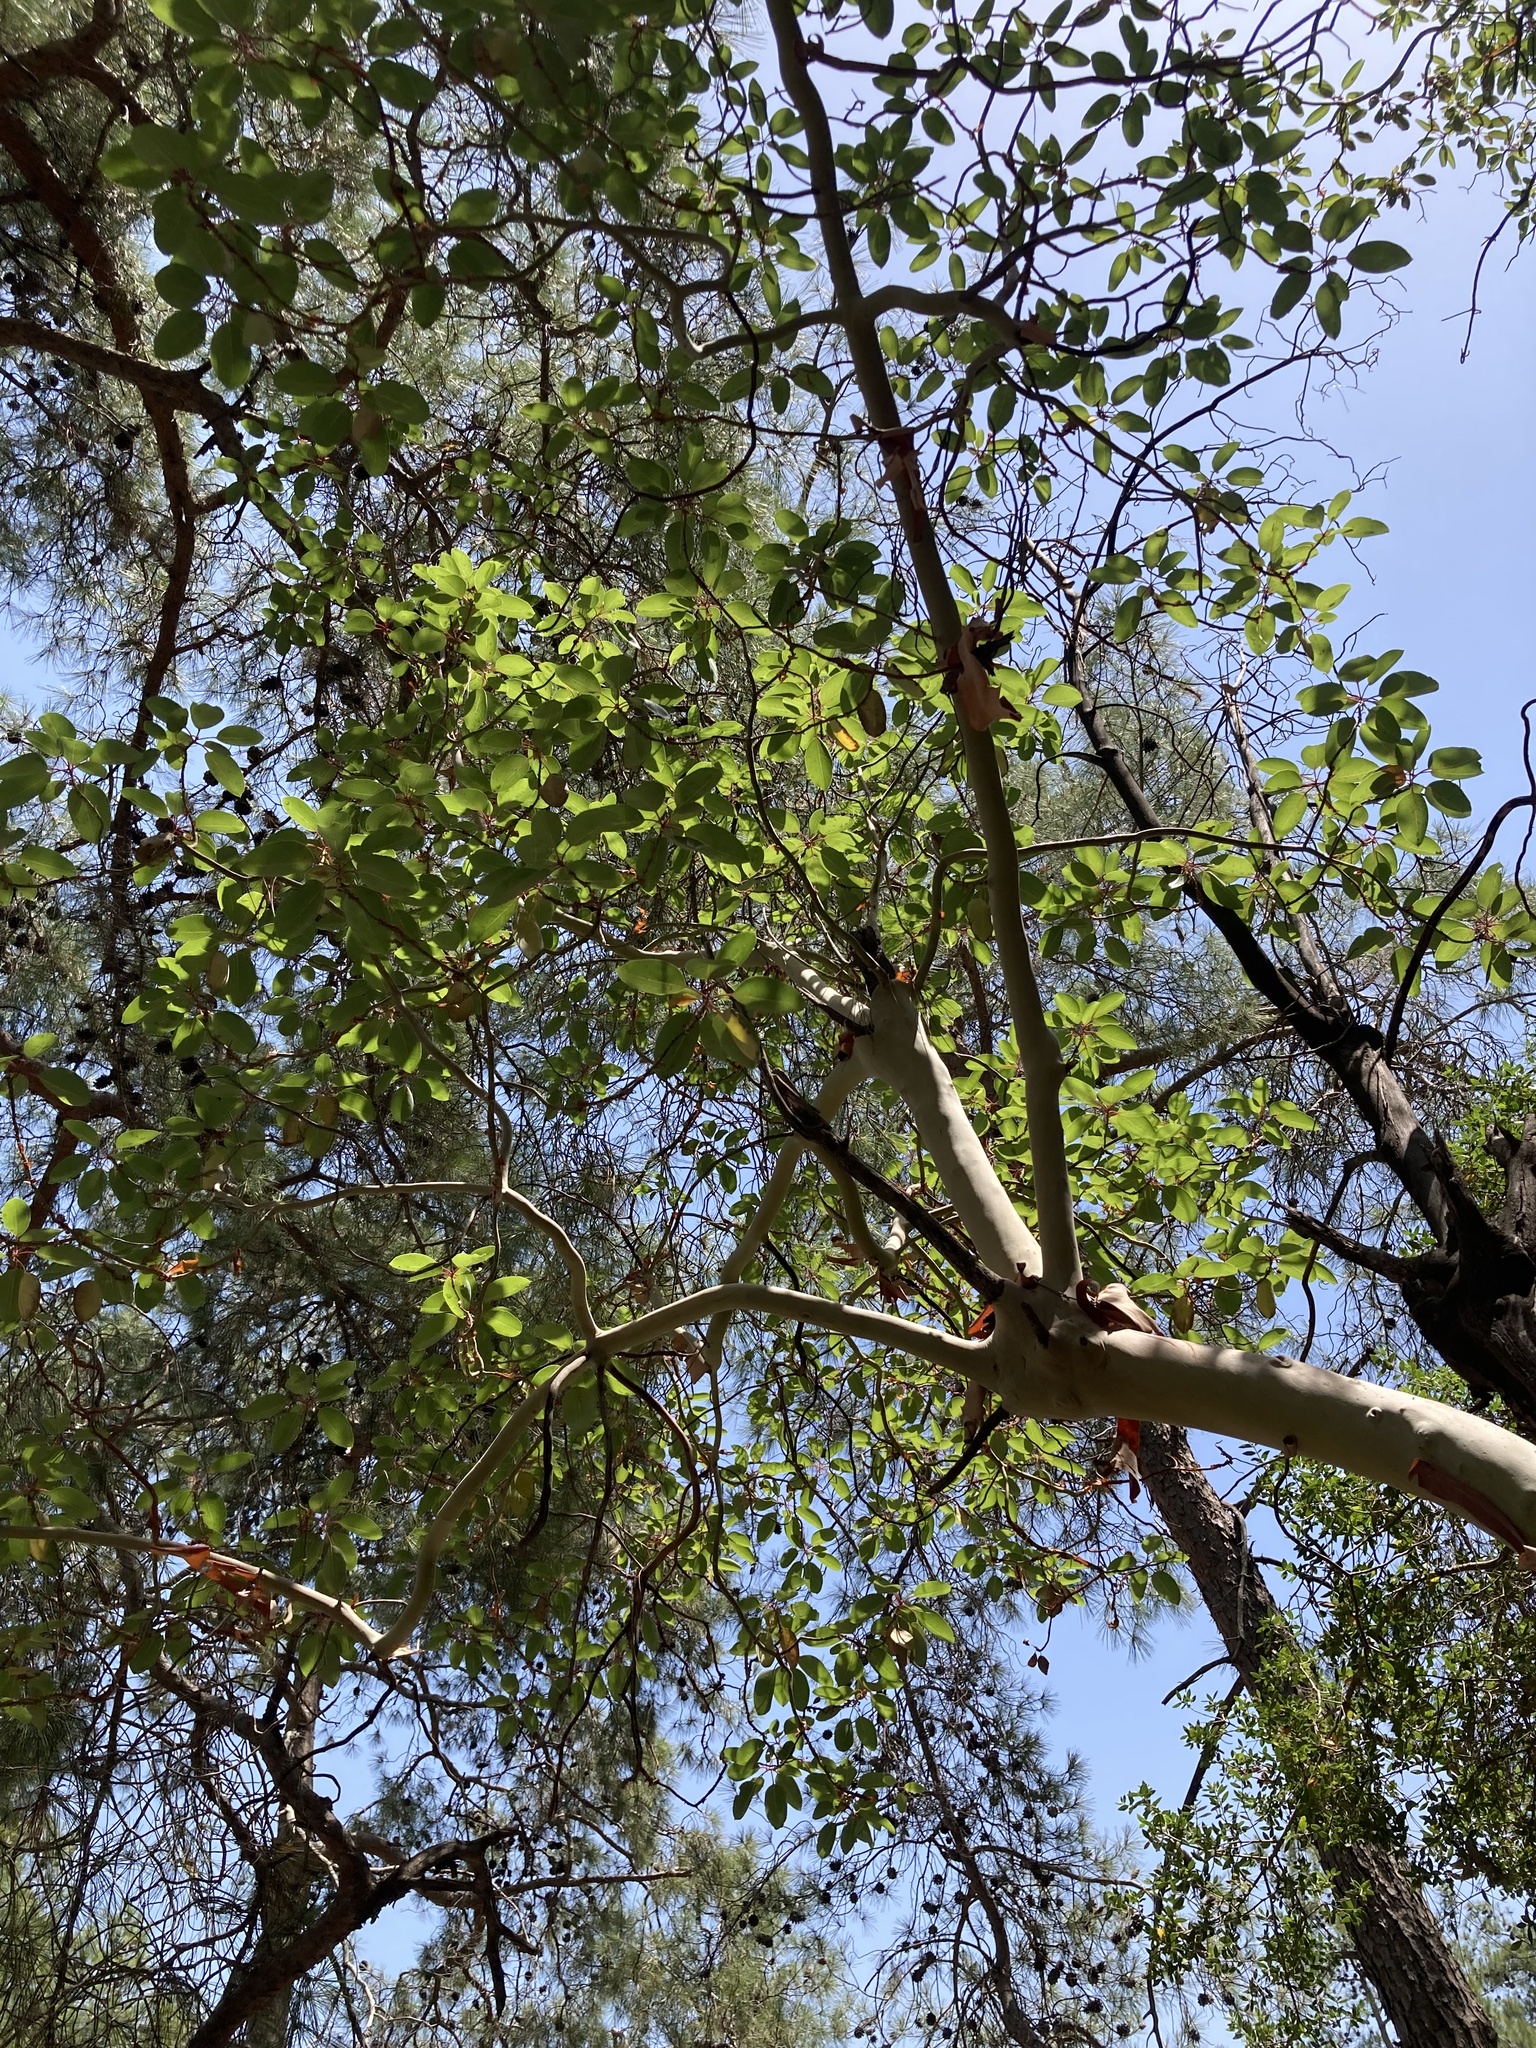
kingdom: Plantae
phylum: Tracheophyta
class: Magnoliopsida
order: Ericales
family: Ericaceae
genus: Arbutus
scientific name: Arbutus andrachne
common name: Greek strawberry tree
